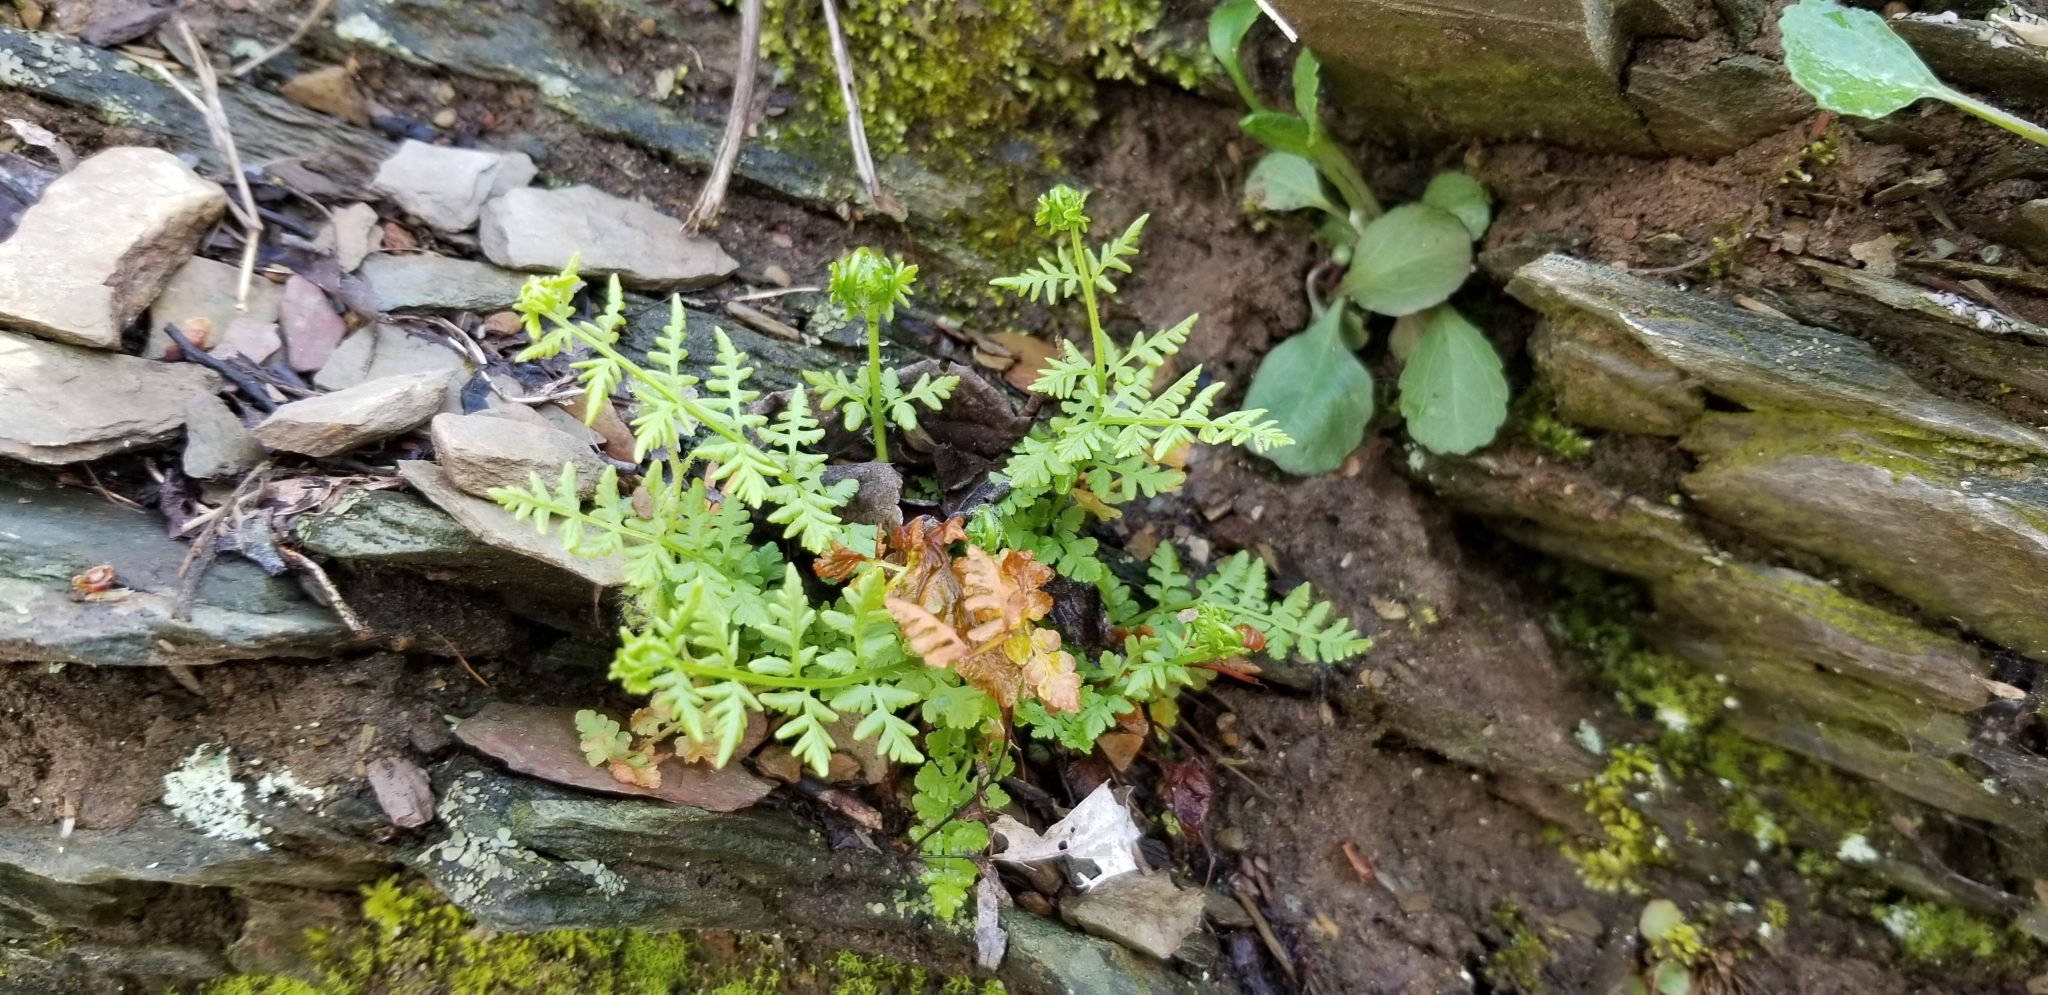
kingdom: Plantae
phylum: Tracheophyta
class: Polypodiopsida
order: Polypodiales
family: Woodsiaceae
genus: Physematium
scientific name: Physematium obtusum
